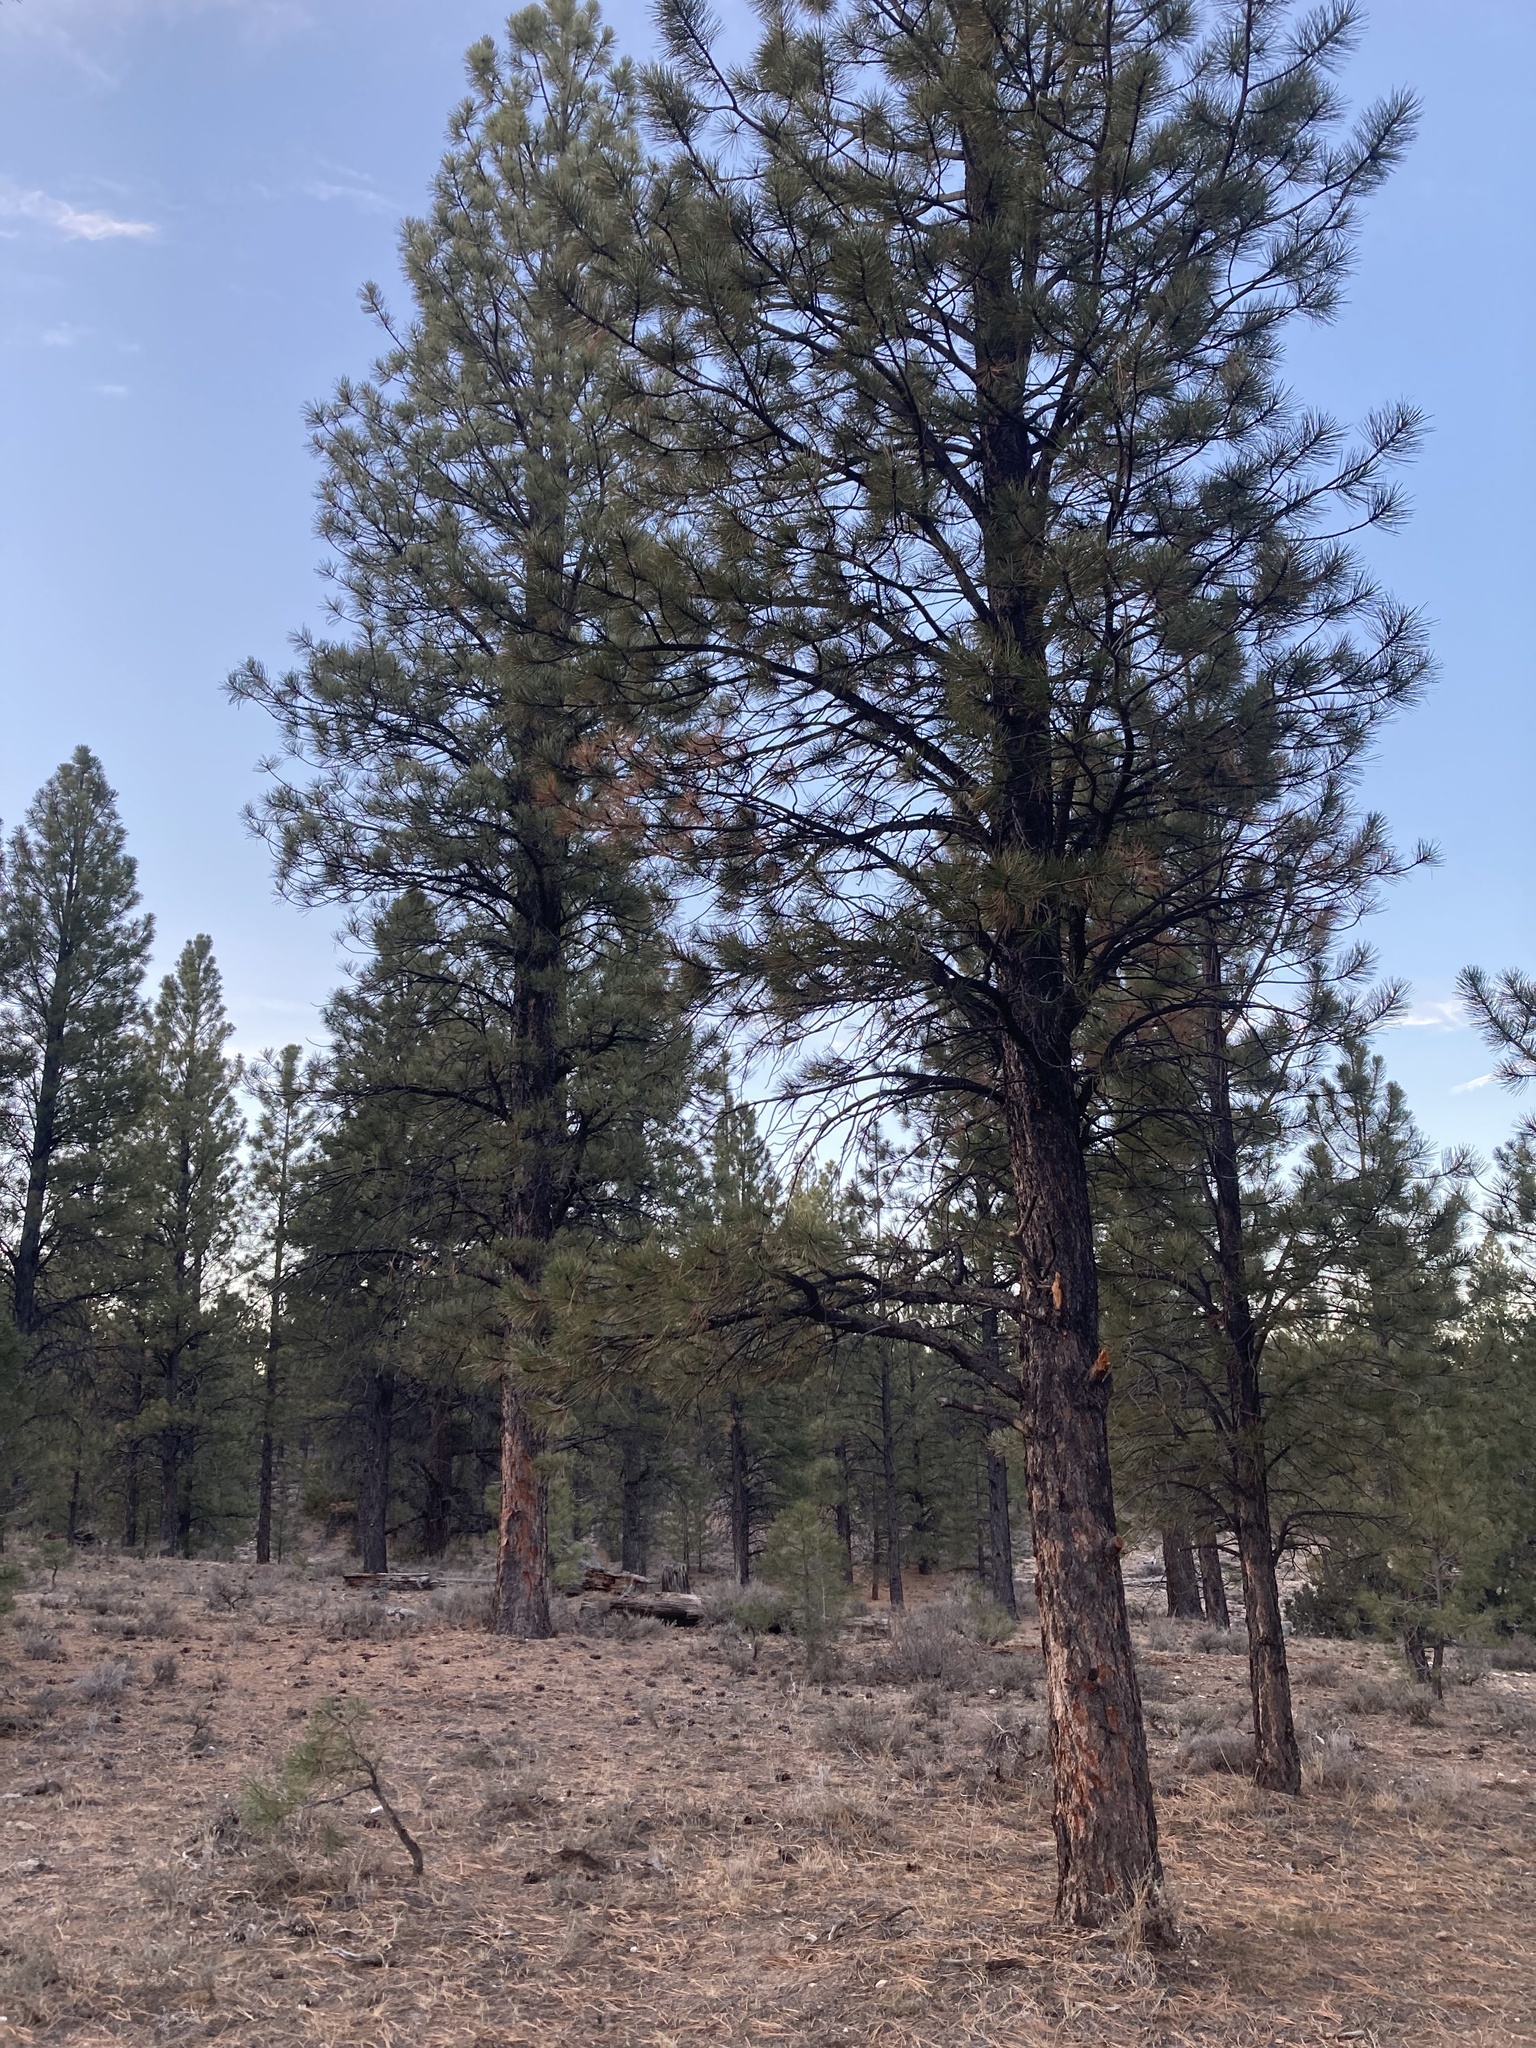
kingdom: Plantae
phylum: Tracheophyta
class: Pinopsida
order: Pinales
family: Pinaceae
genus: Pinus
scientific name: Pinus ponderosa
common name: Western yellow-pine
